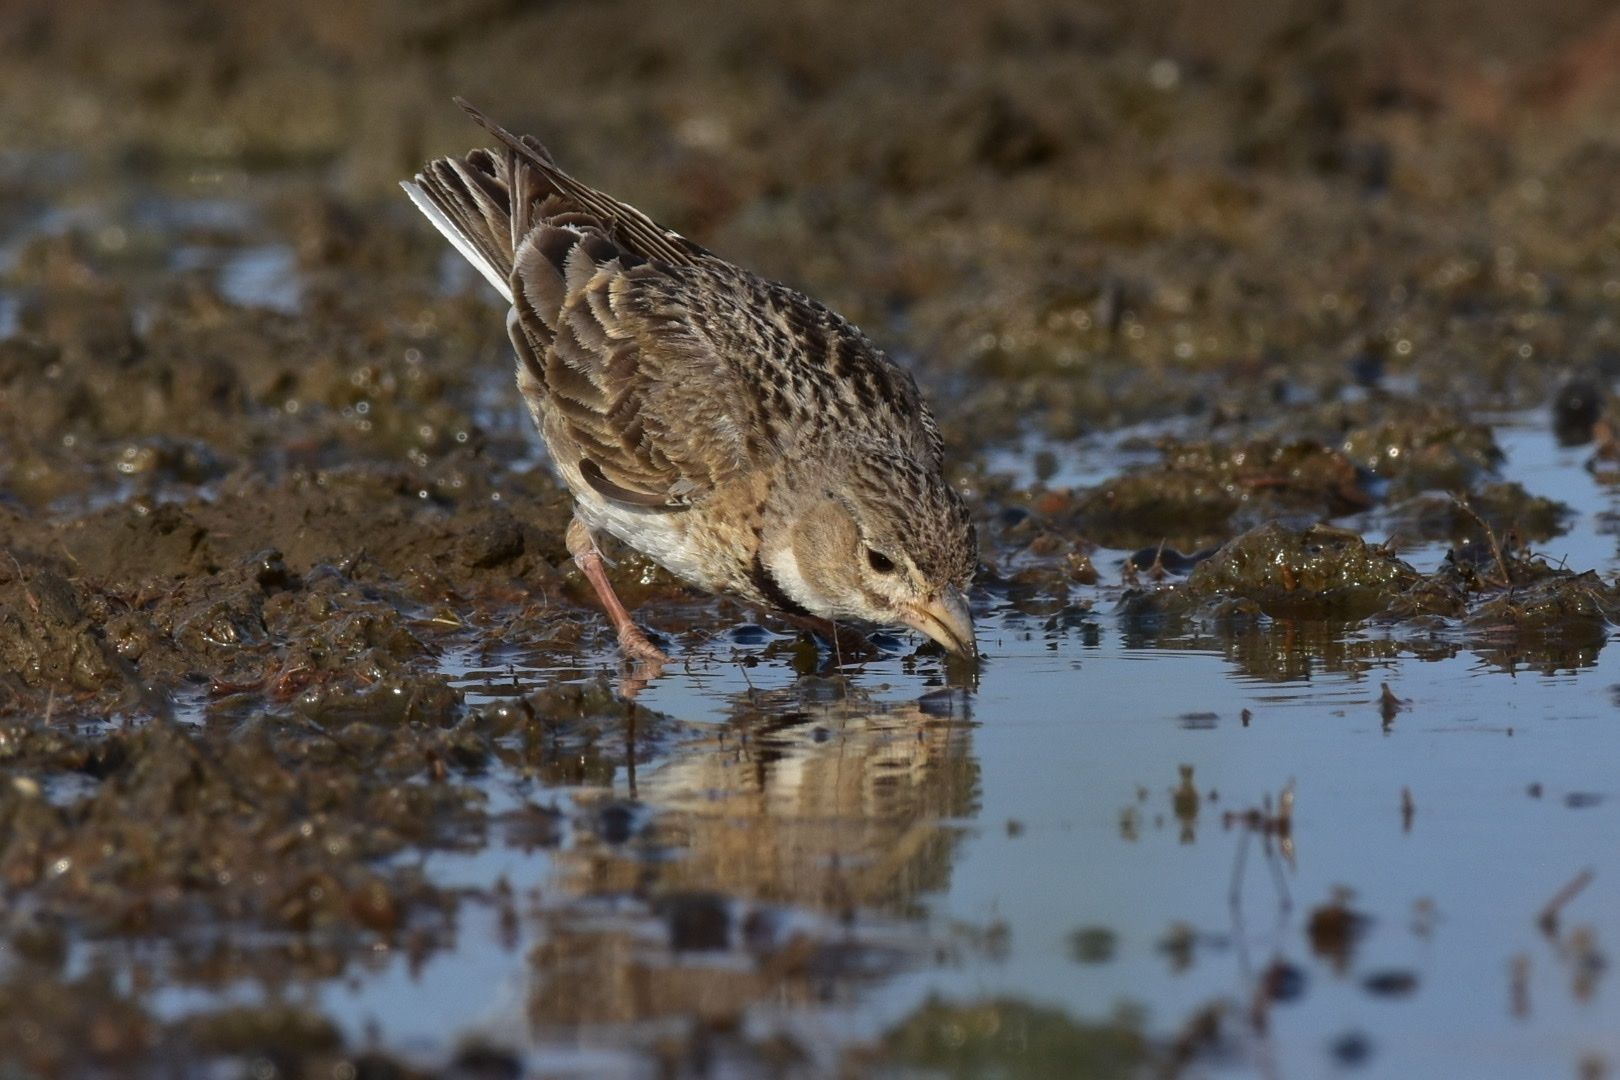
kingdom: Animalia
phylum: Chordata
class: Aves
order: Passeriformes
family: Alaudidae
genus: Melanocorypha
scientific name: Melanocorypha calandra
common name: Calandra lark
